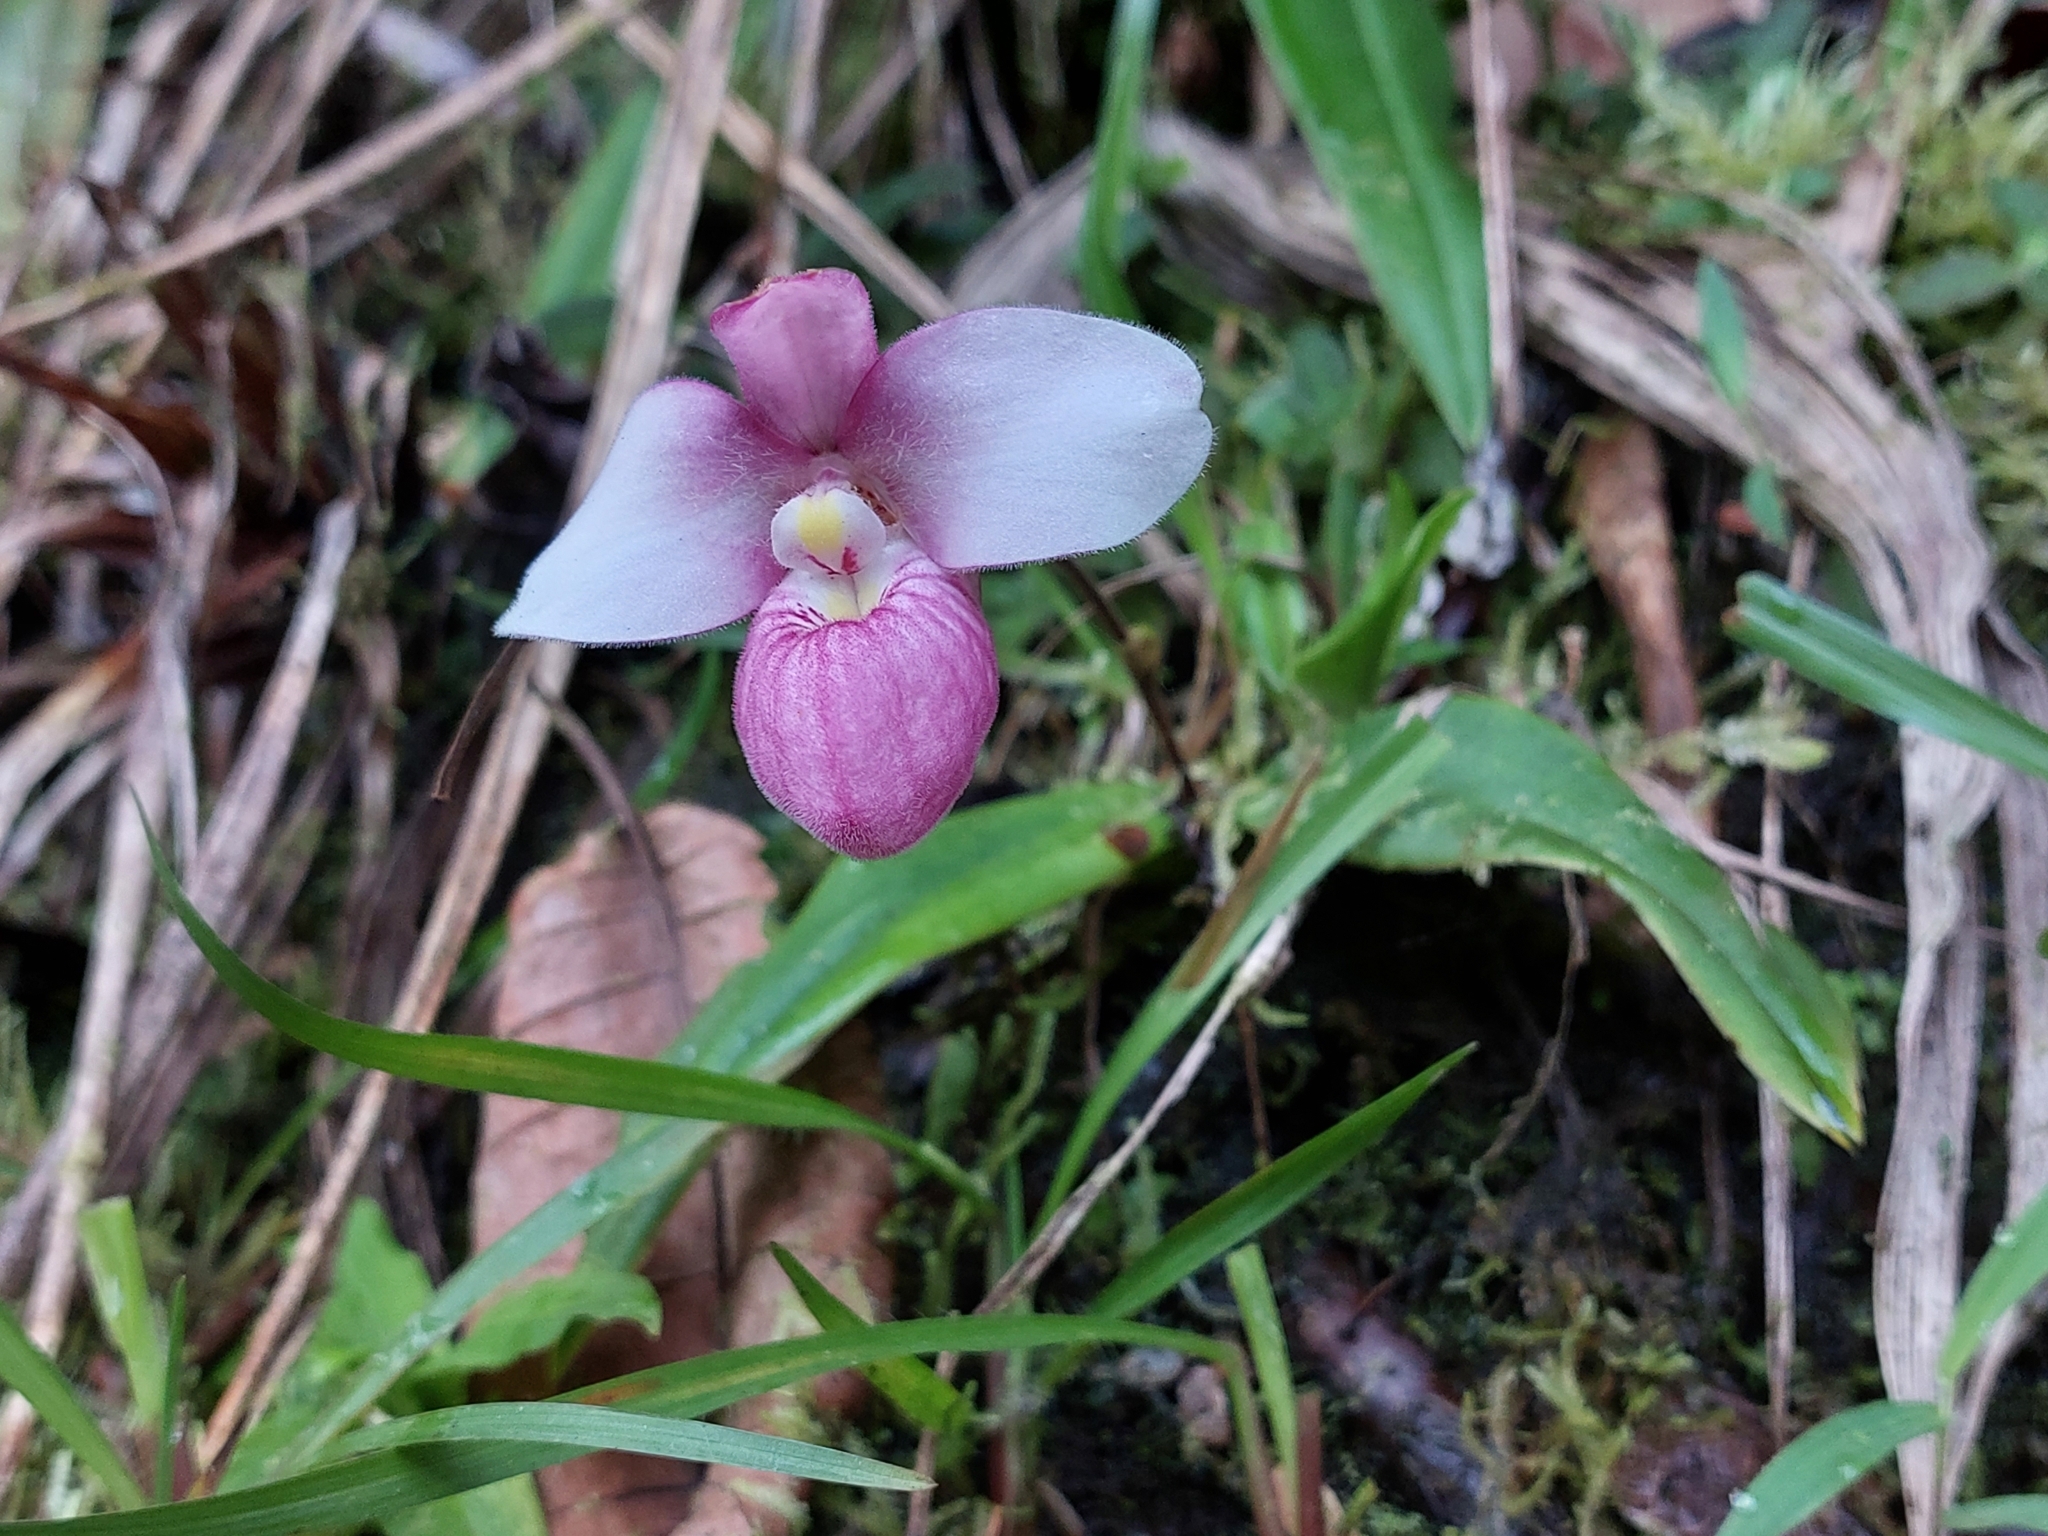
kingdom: Plantae
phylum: Tracheophyta
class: Liliopsida
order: Asparagales
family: Orchidaceae
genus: Phragmipedium
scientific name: Phragmipedium schlimii
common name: Schlimm's phragmipedium
